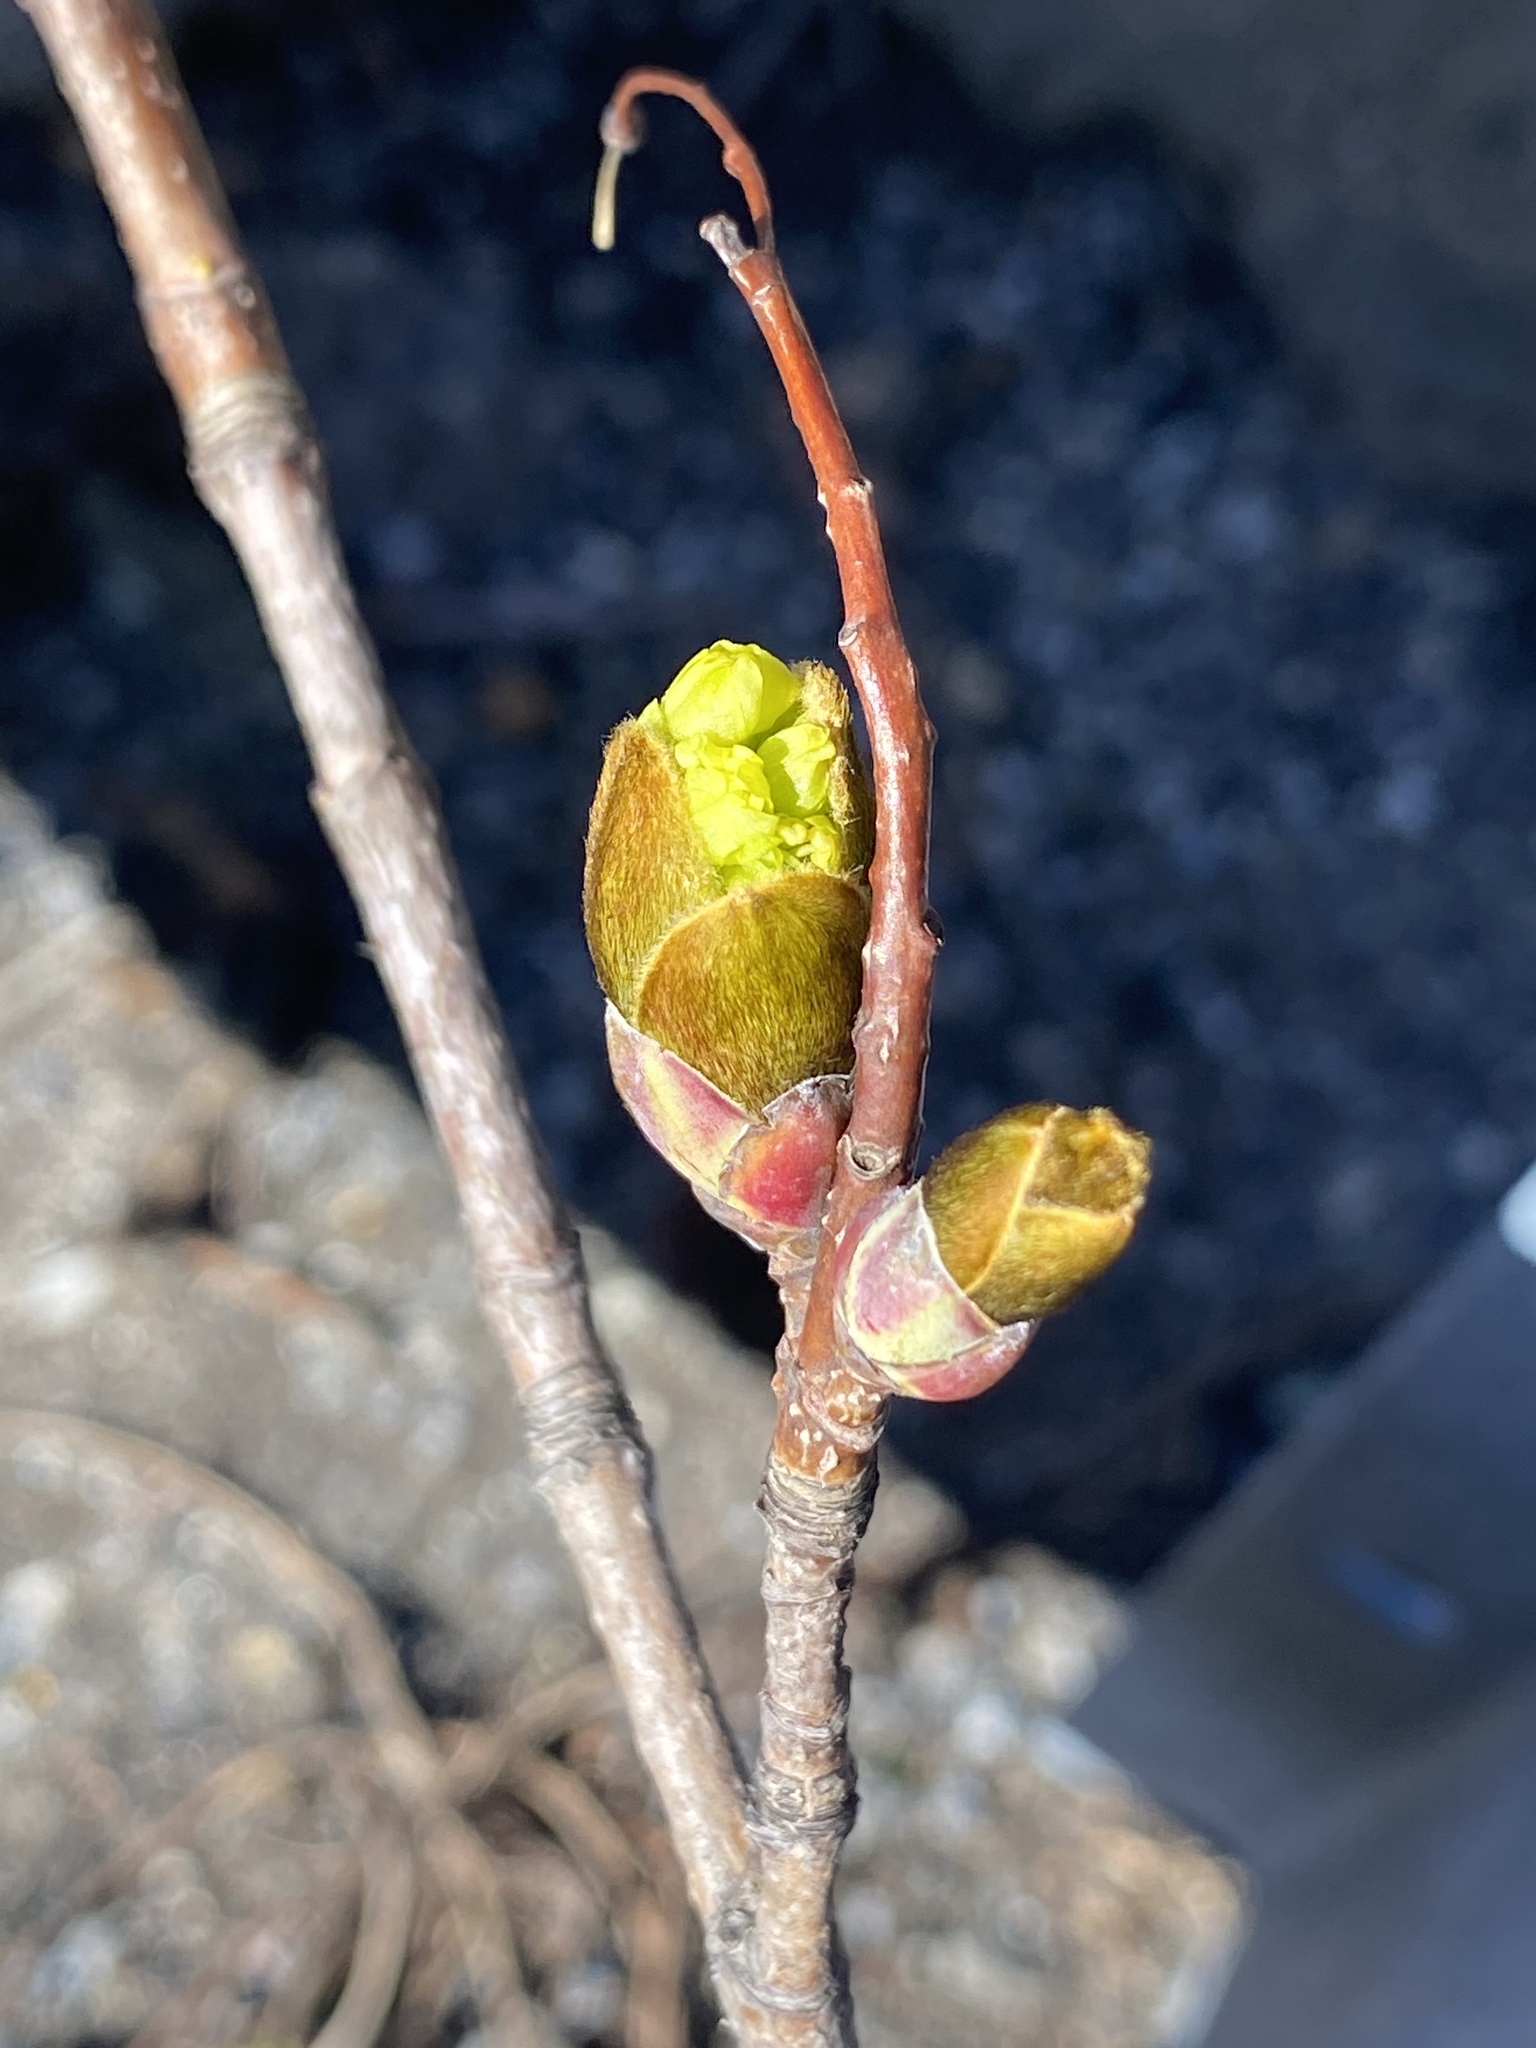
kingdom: Plantae
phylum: Tracheophyta
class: Magnoliopsida
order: Sapindales
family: Sapindaceae
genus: Acer
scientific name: Acer platanoides
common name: Norway maple
